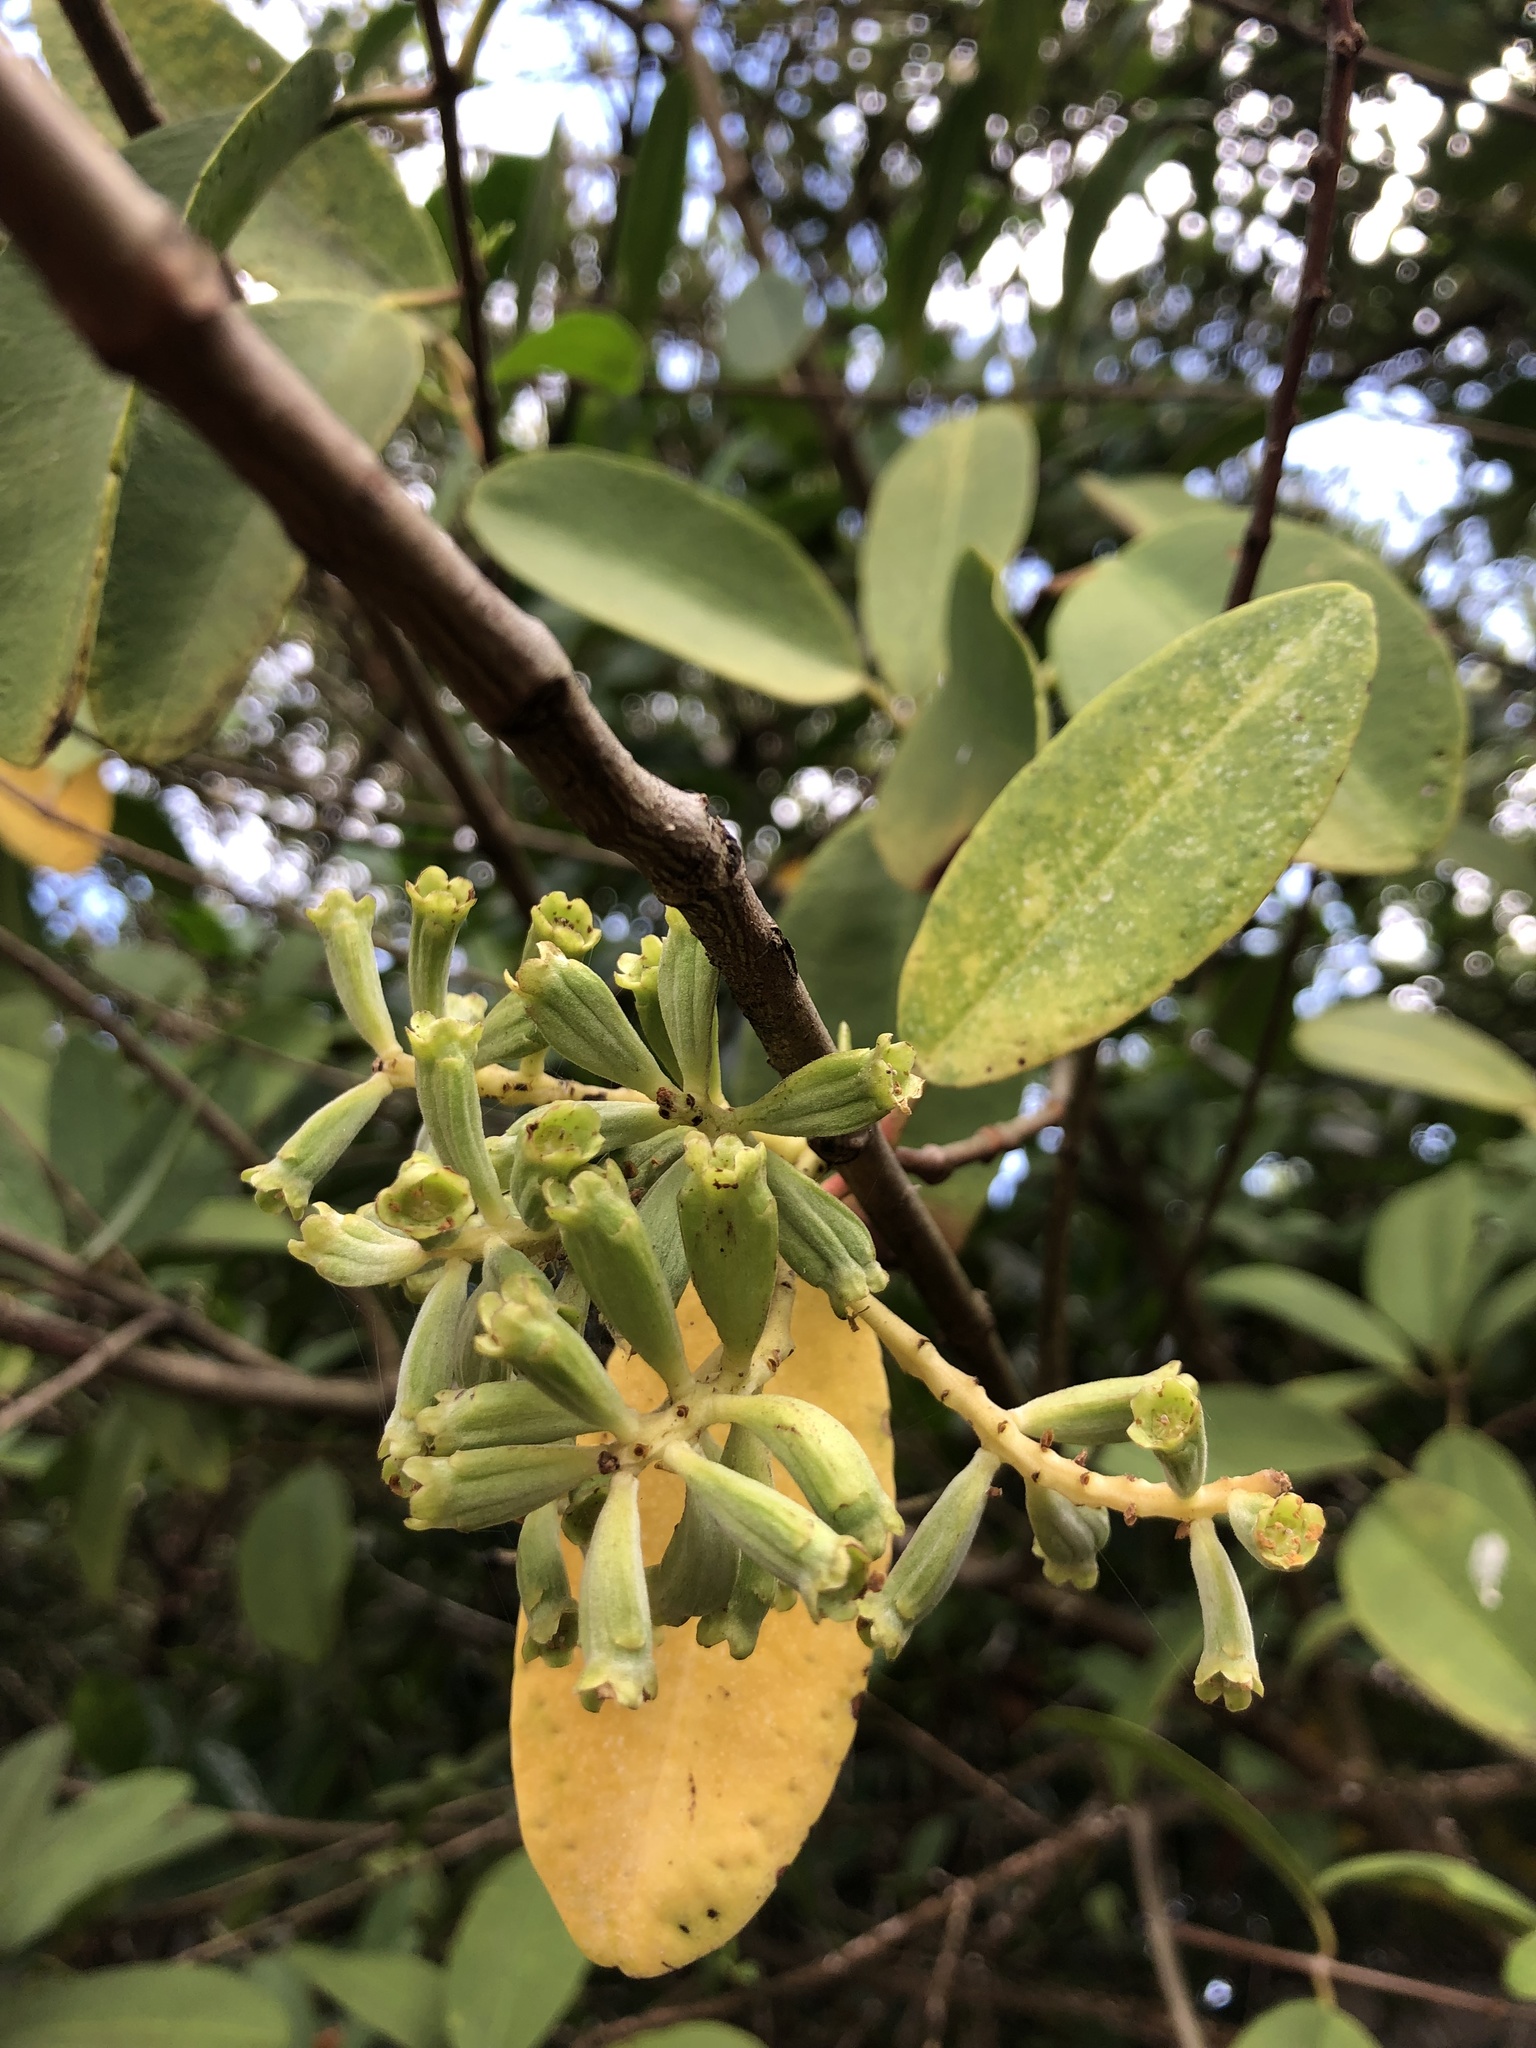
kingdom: Plantae
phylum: Tracheophyta
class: Magnoliopsida
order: Myrtales
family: Combretaceae
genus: Laguncularia
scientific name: Laguncularia racemosa
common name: White mangrove
